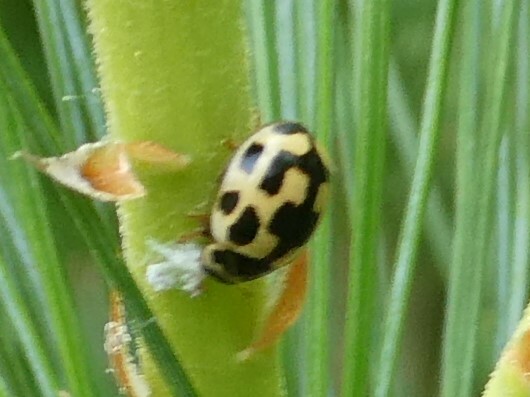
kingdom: Animalia
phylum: Arthropoda
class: Insecta
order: Coleoptera
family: Coccinellidae
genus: Propylaea
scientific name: Propylaea quatuordecimpunctata
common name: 14-spotted ladybird beetle
